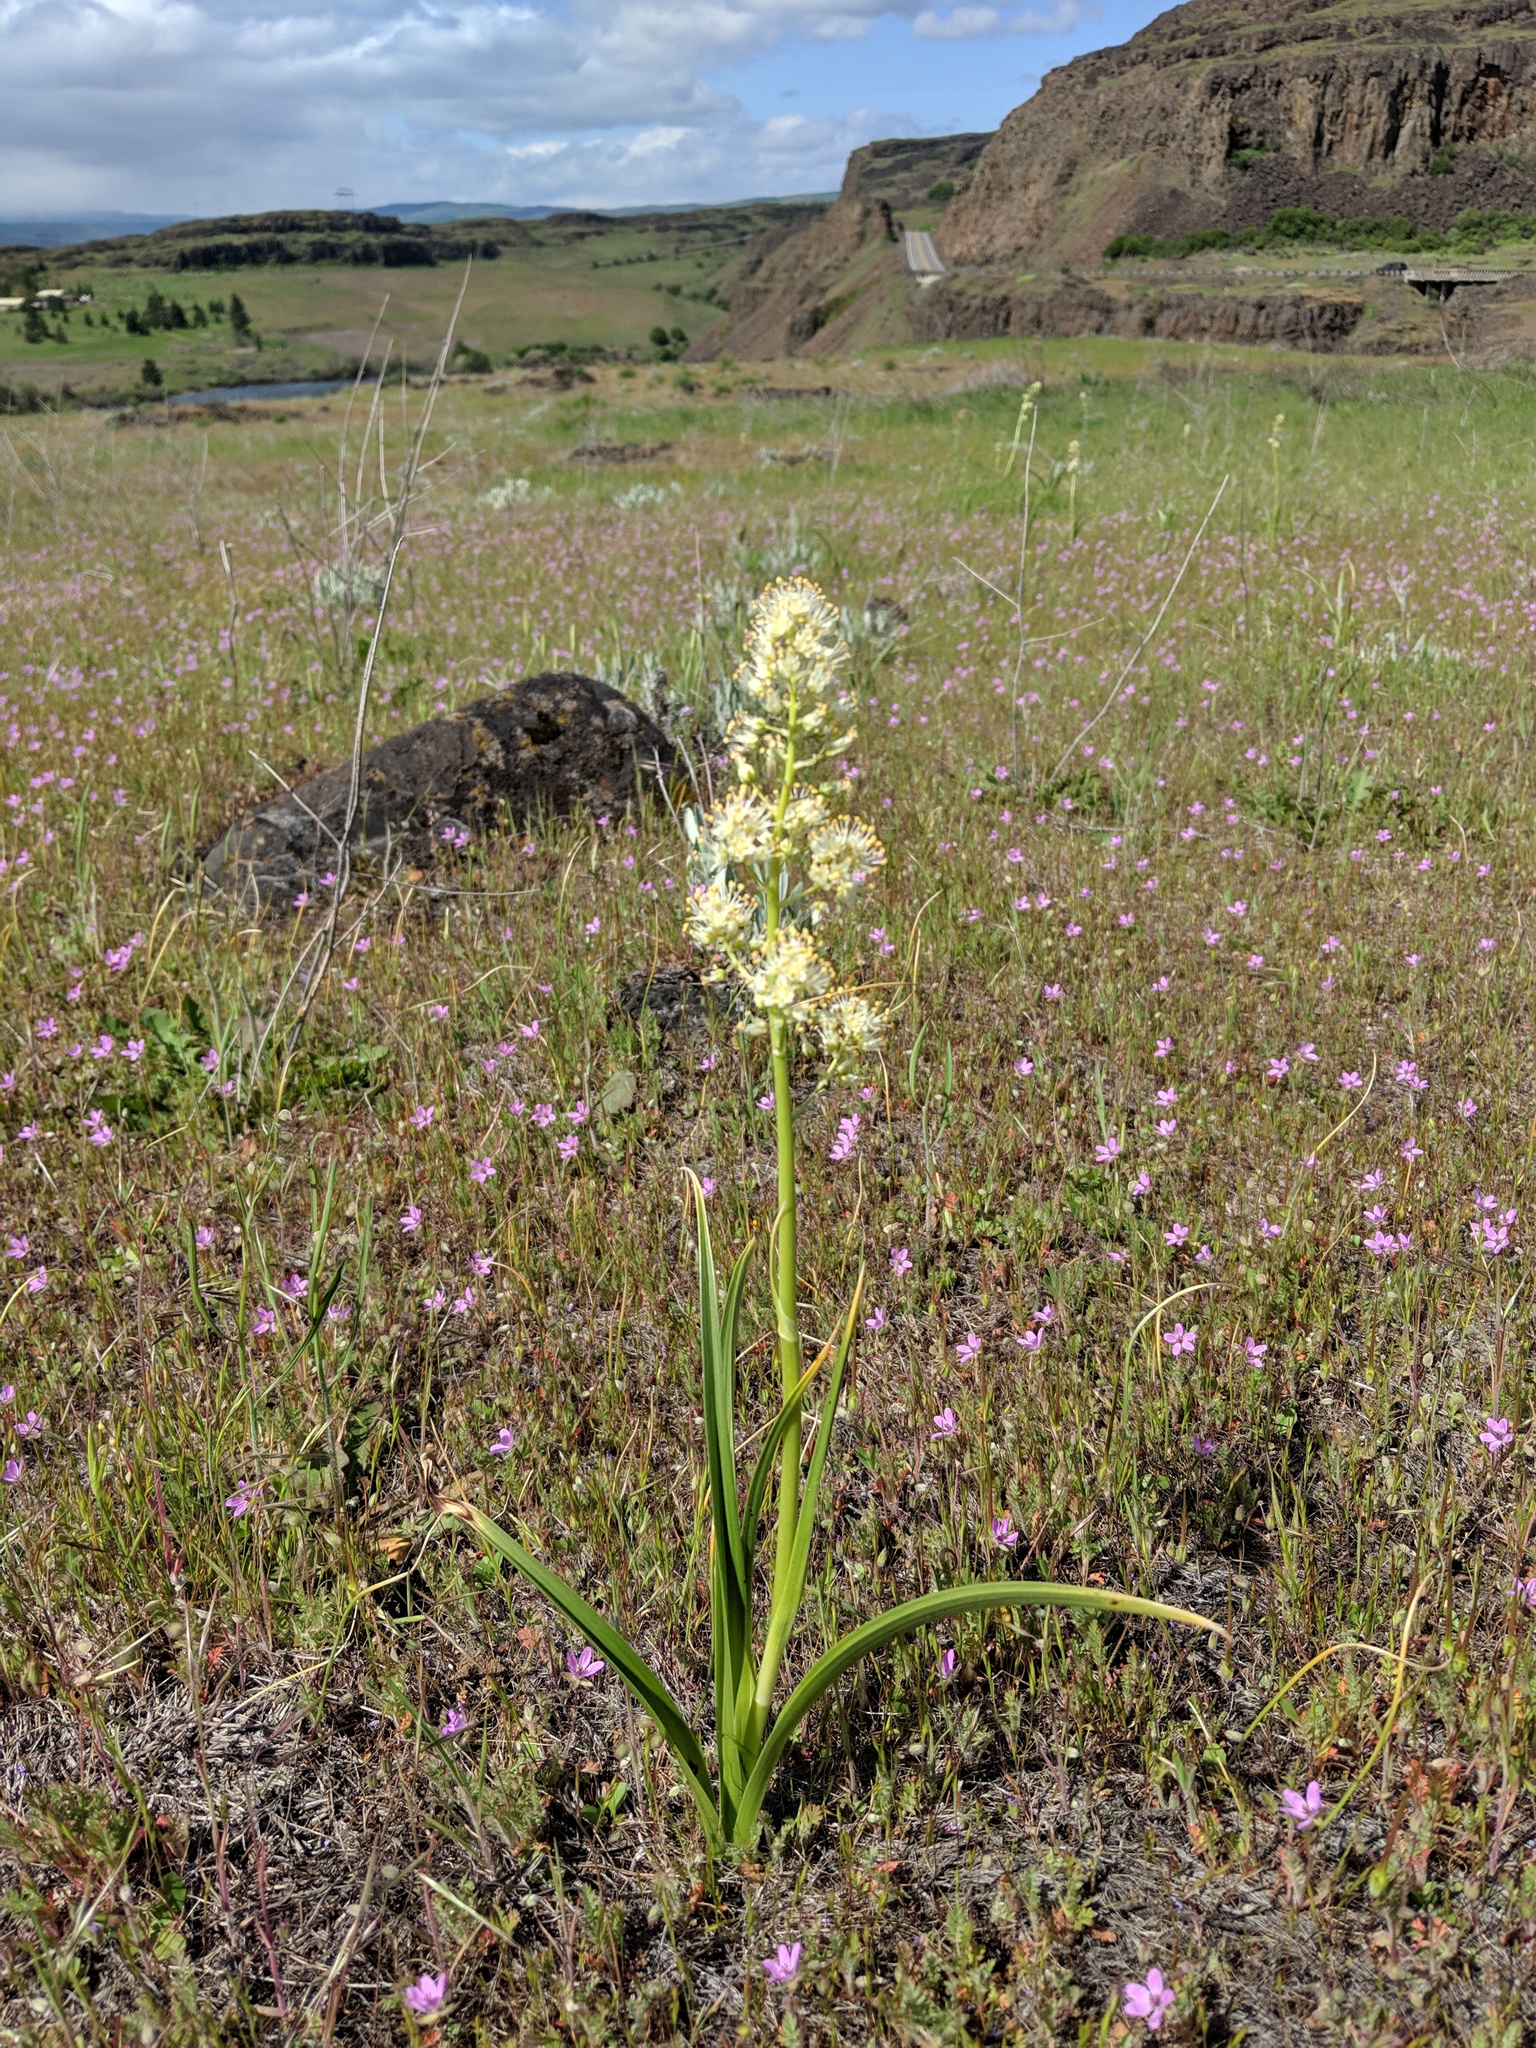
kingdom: Plantae
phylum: Tracheophyta
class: Liliopsida
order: Liliales
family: Melanthiaceae
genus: Toxicoscordion
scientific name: Toxicoscordion paniculatum
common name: Foothill death camas
